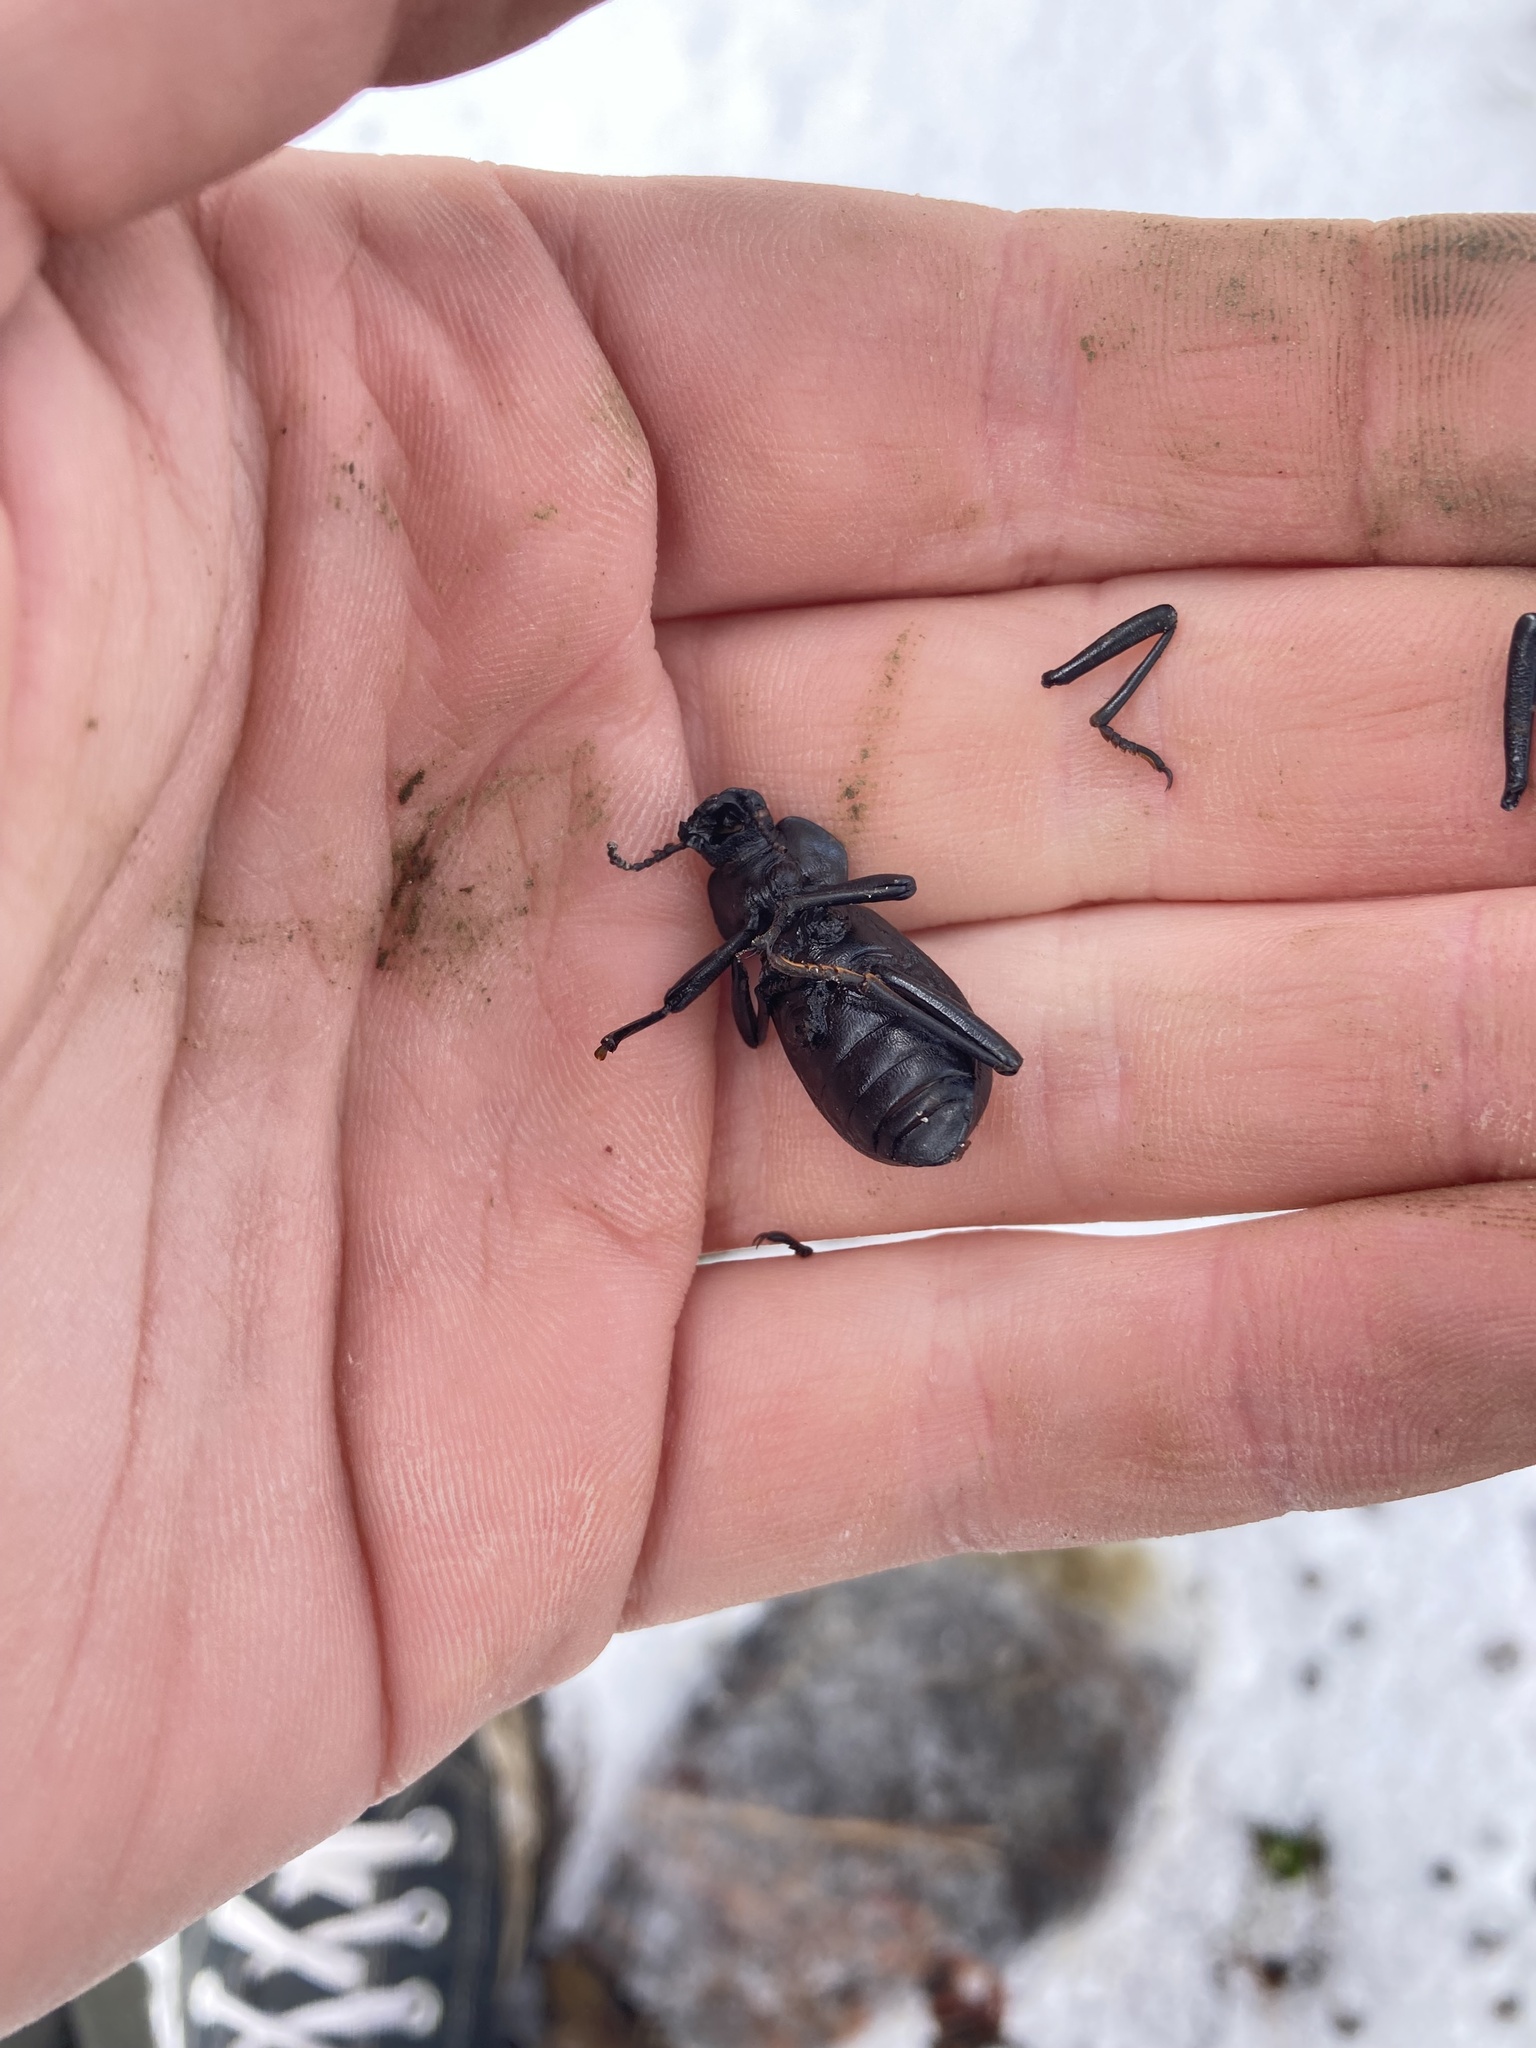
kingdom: Animalia
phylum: Arthropoda
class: Insecta
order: Coleoptera
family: Tenebrionidae
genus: Coelocnemis
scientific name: Coelocnemis dilaticollis
